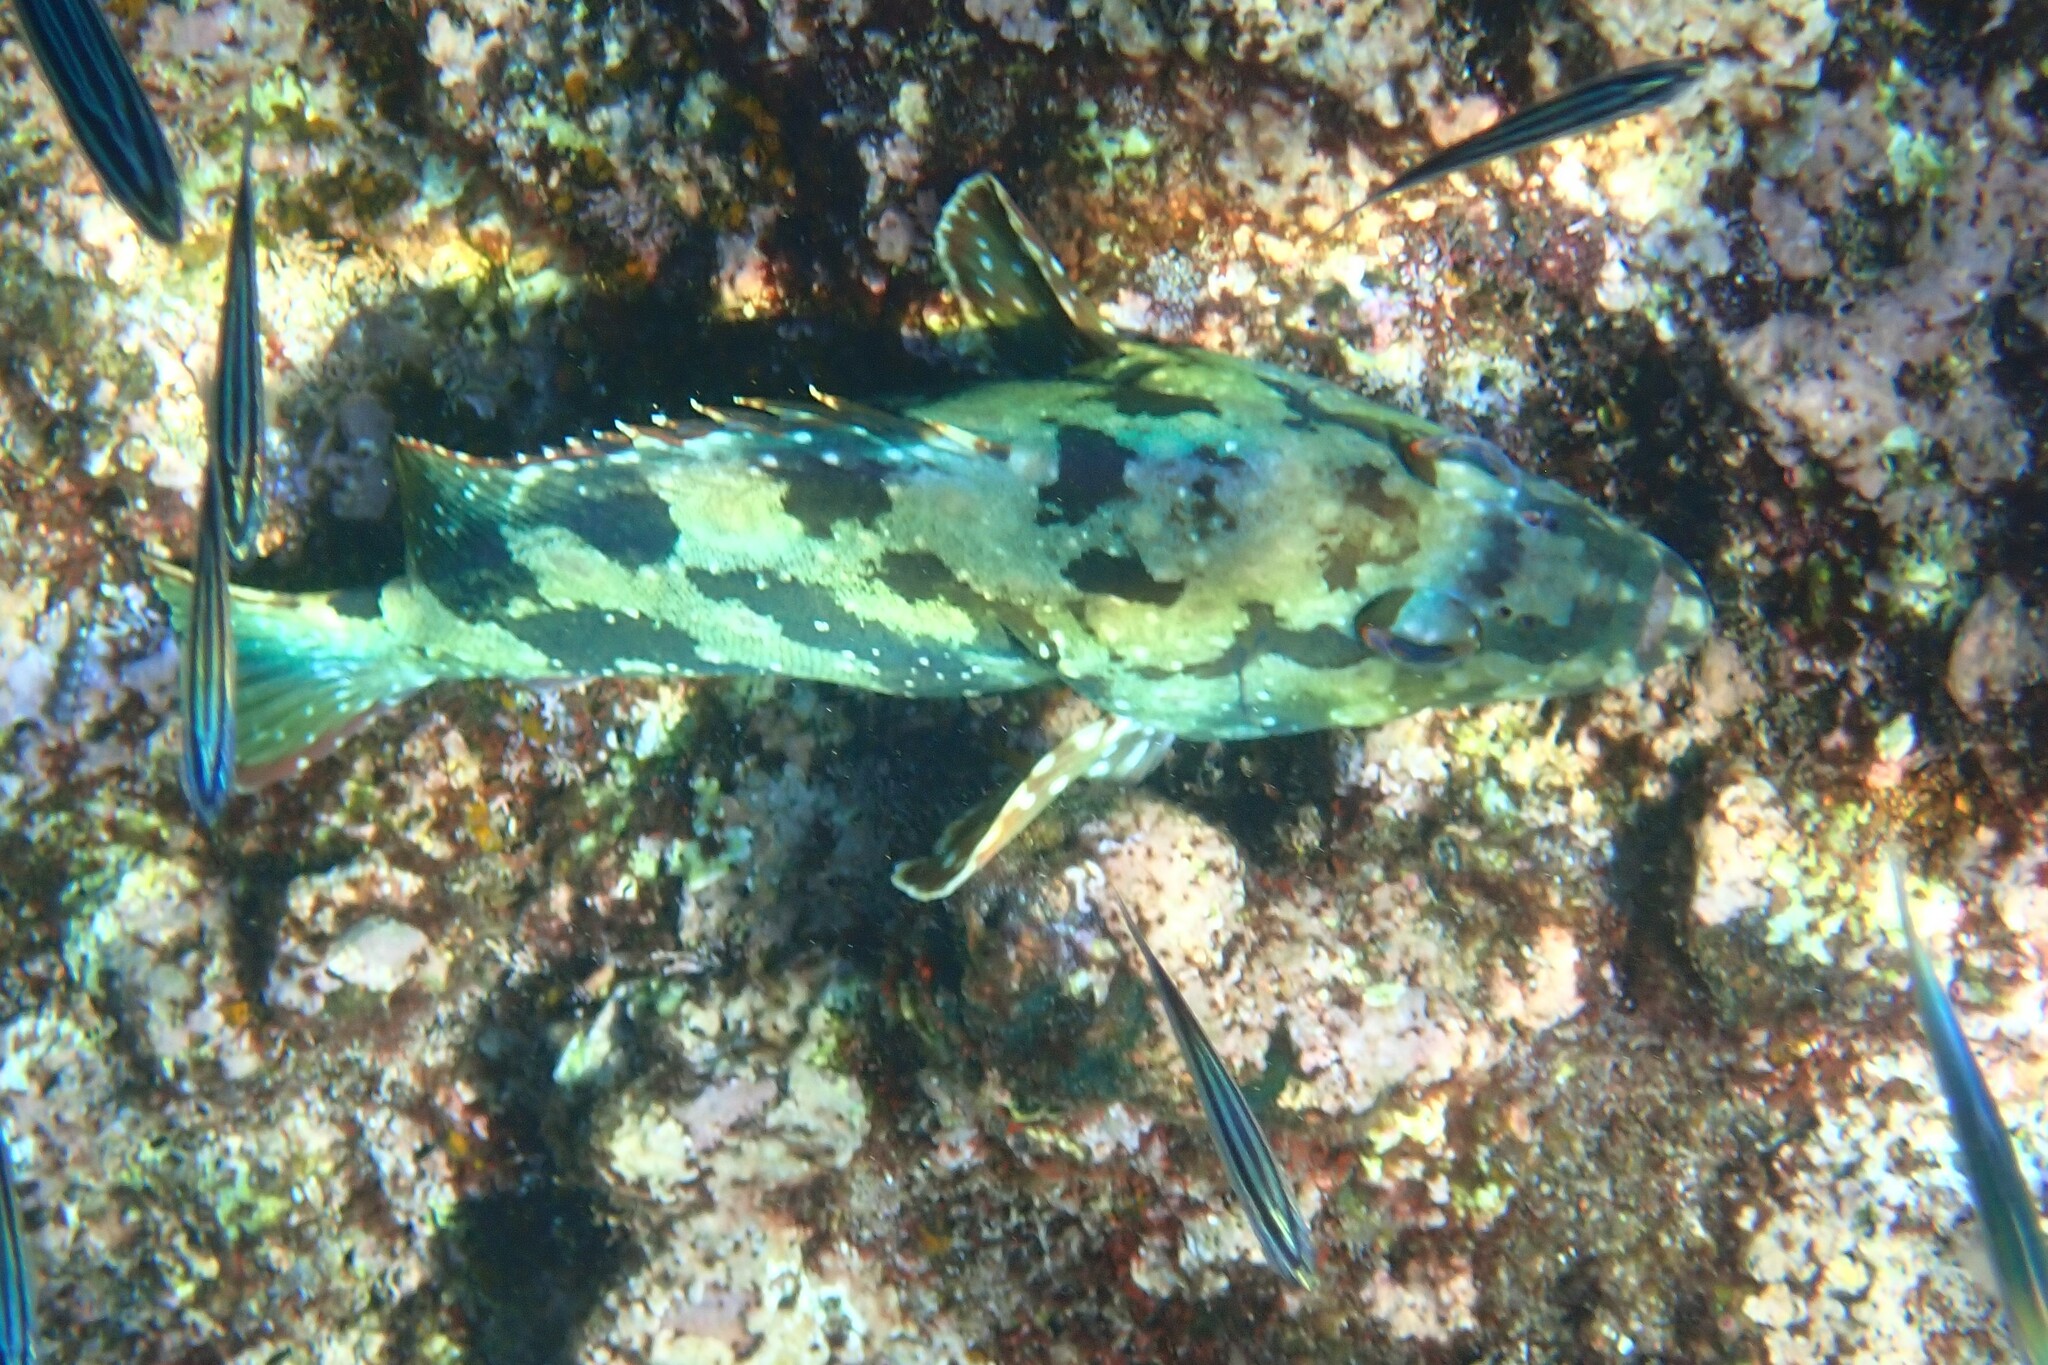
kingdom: Animalia
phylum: Chordata
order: Perciformes
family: Serranidae
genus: Epinephelus
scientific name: Epinephelus labriformis
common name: Flag cabrilla
